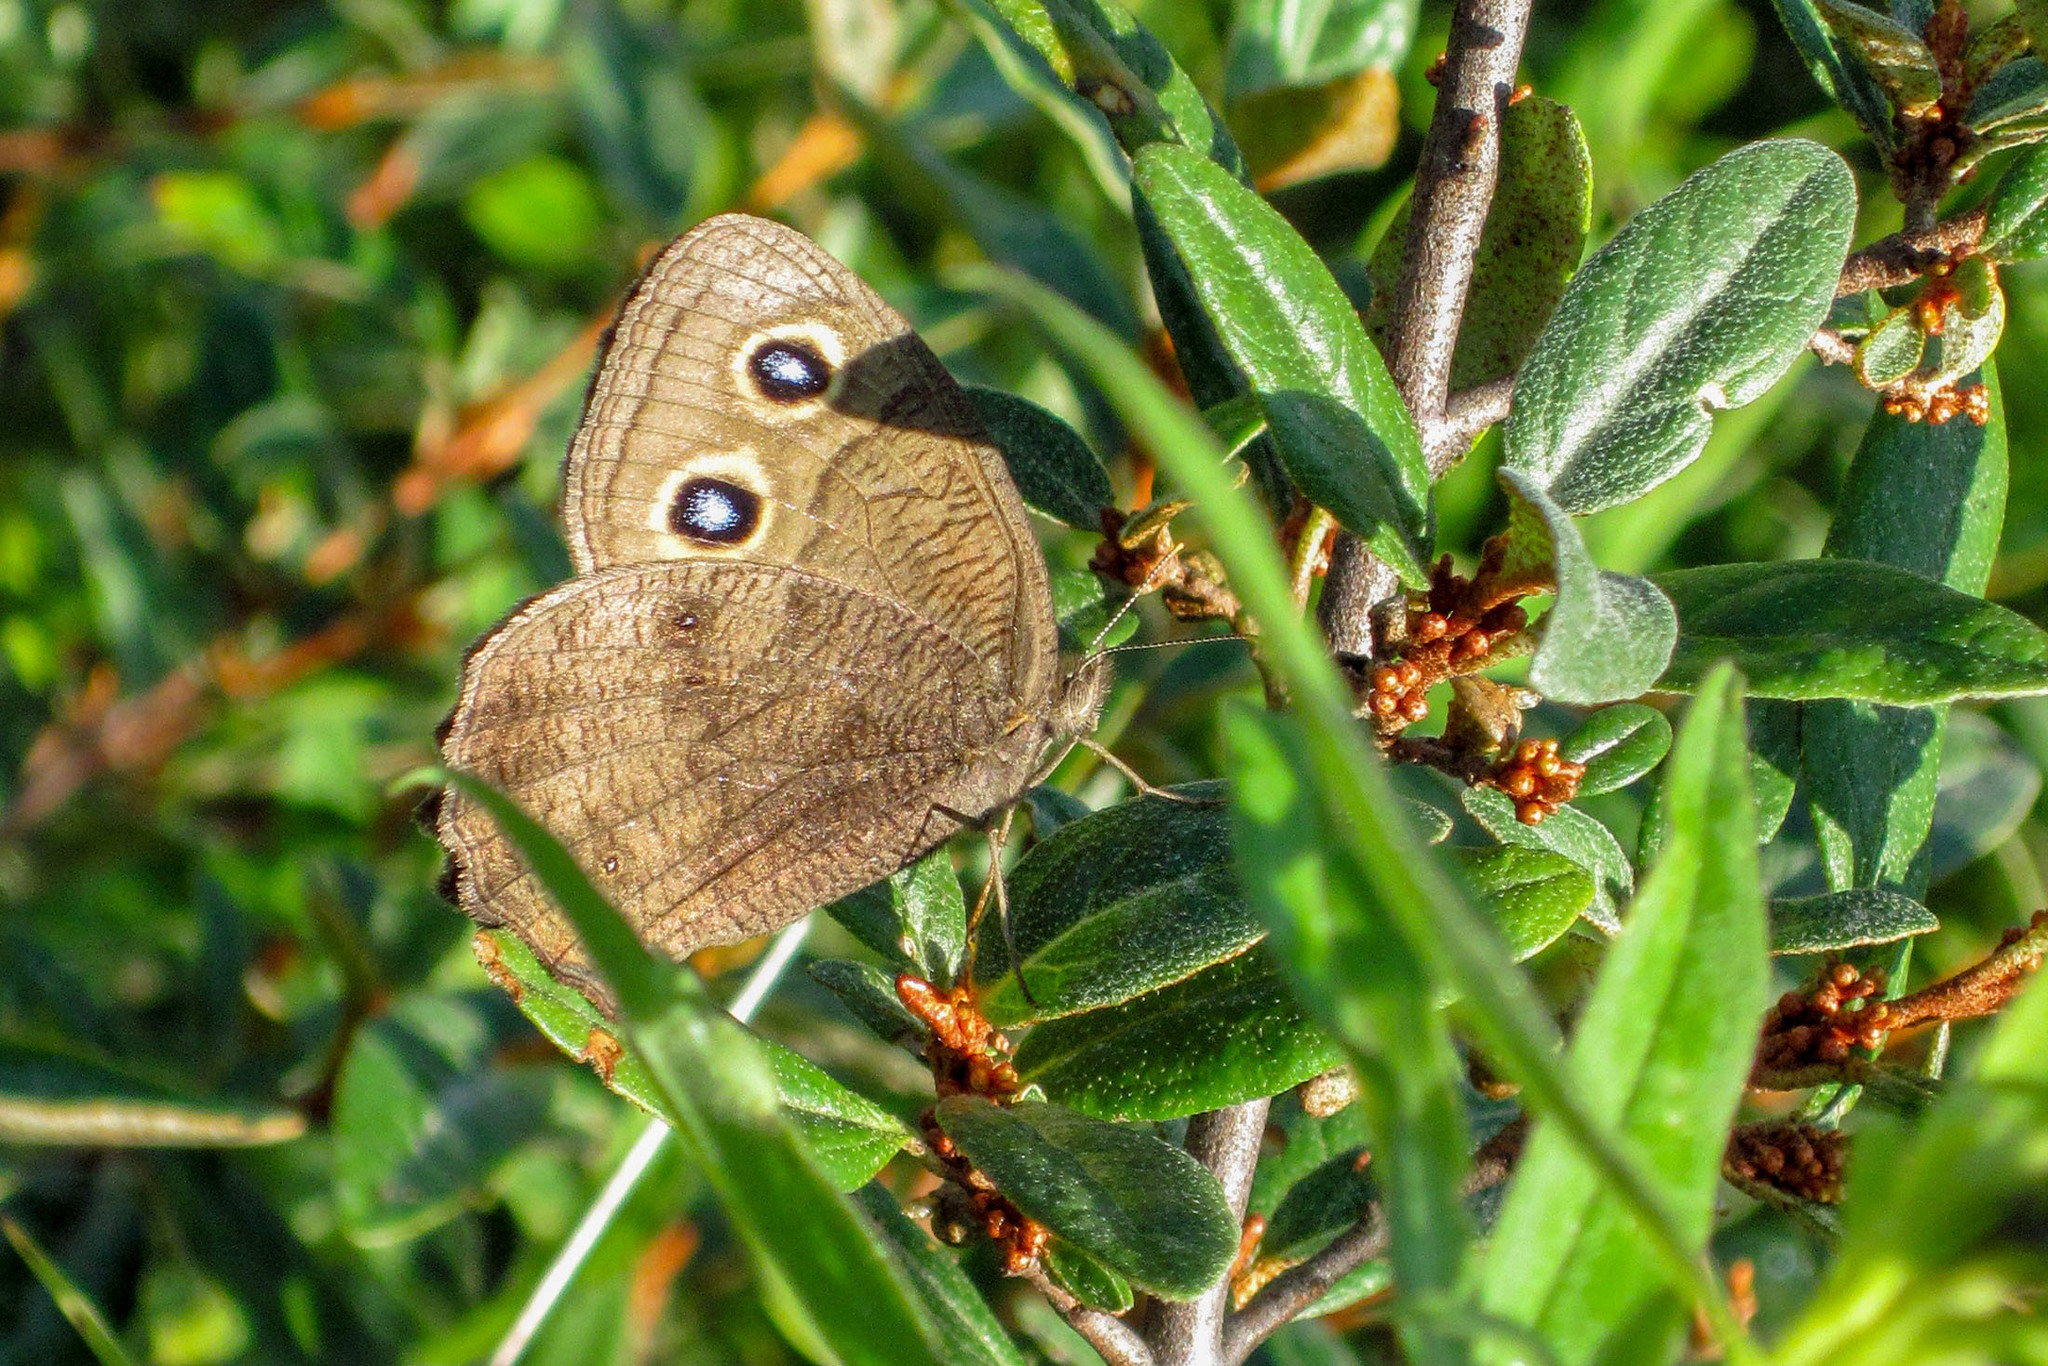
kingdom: Animalia
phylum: Arthropoda
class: Insecta
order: Lepidoptera
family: Nymphalidae
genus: Cercyonis
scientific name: Cercyonis pegala
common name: Common wood-nymph
